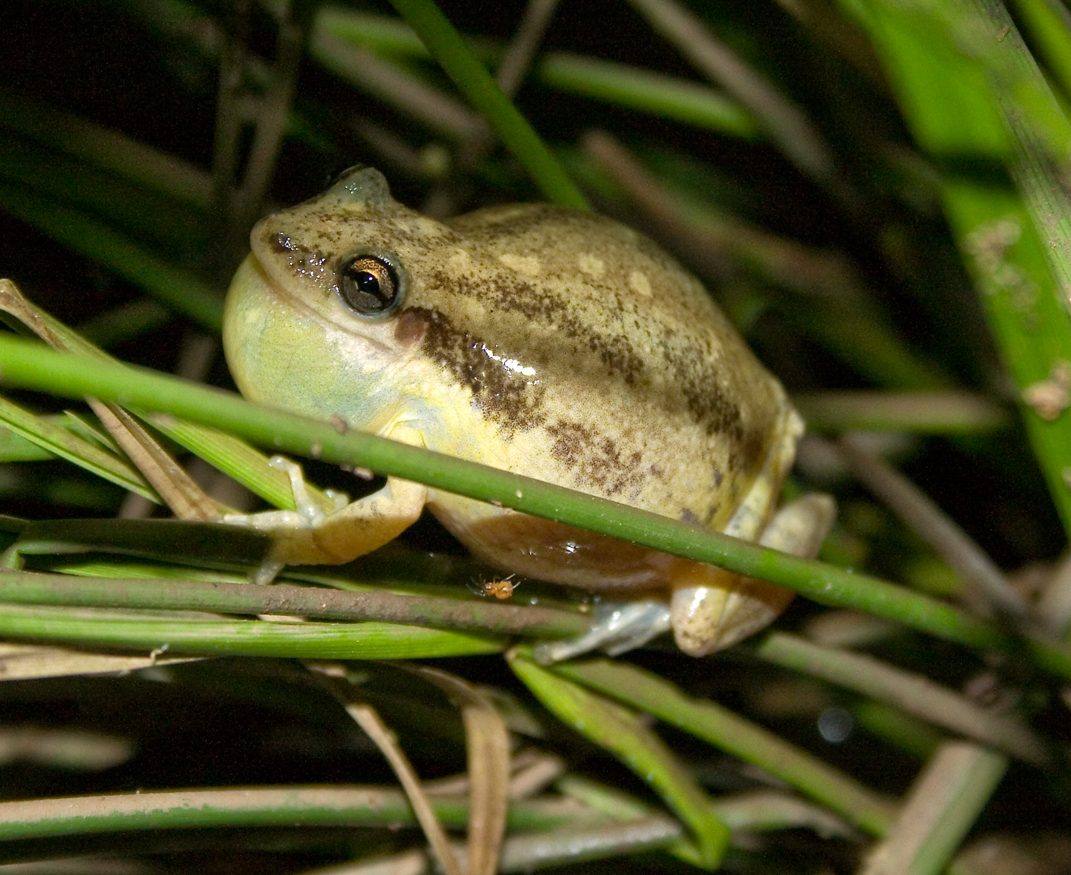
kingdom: Animalia
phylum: Chordata
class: Amphibia
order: Anura
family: Hylidae
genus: Scinax
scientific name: Scinax nasicus
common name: Lesser snouted treefrog
